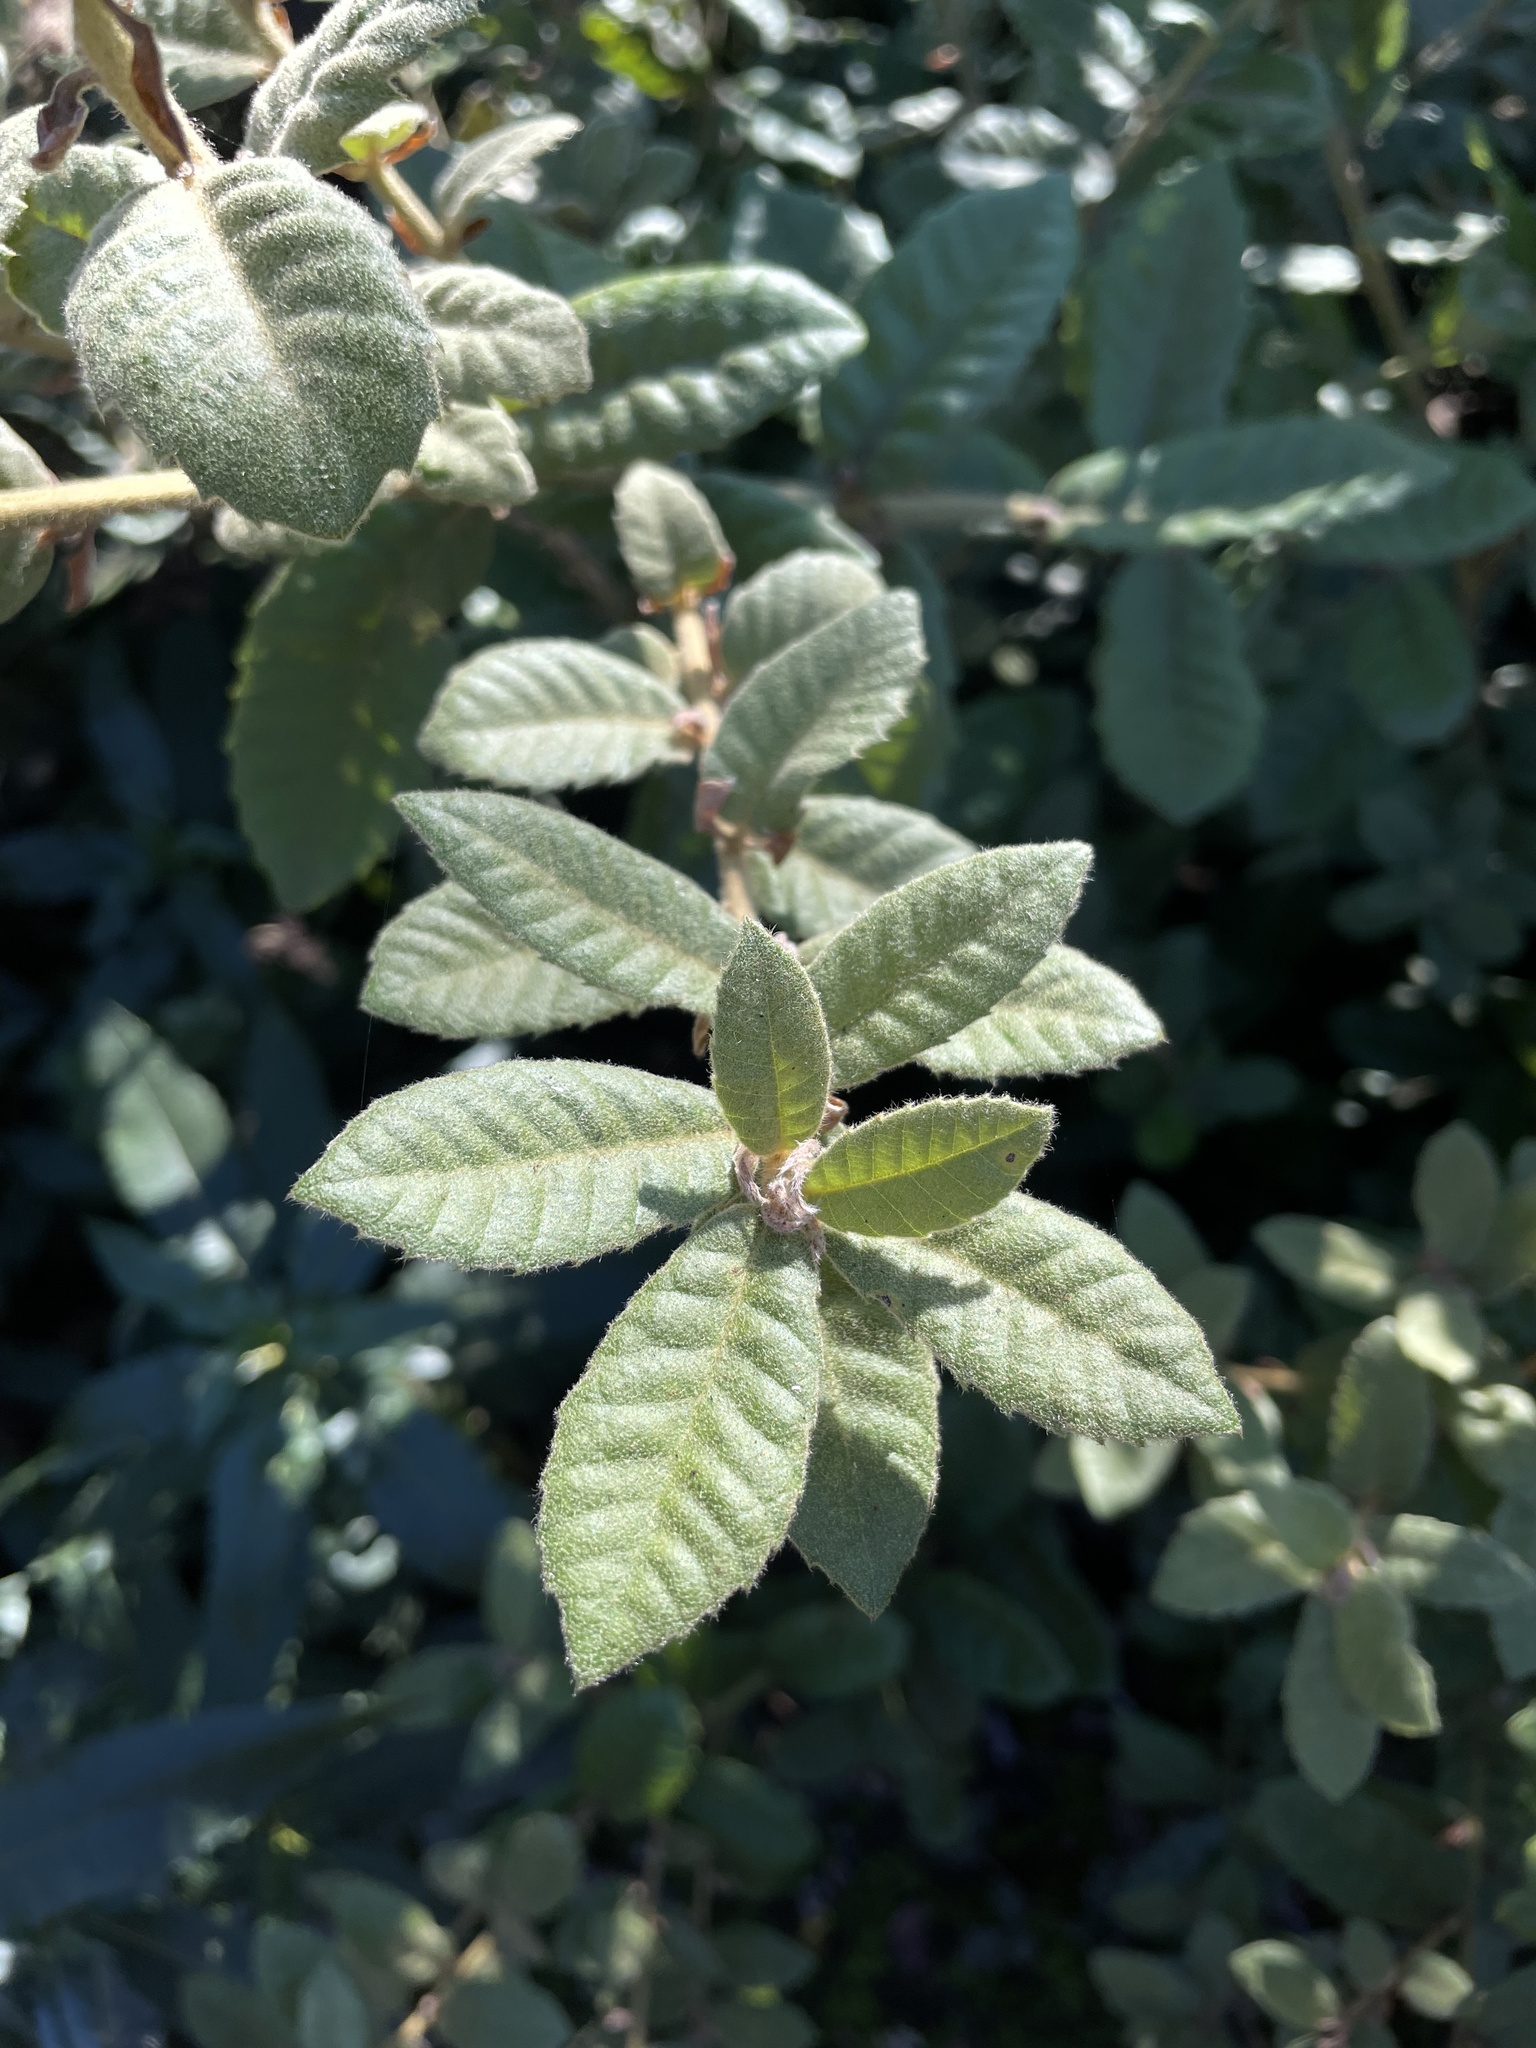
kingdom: Plantae
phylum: Tracheophyta
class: Magnoliopsida
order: Fagales
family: Fagaceae
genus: Notholithocarpus
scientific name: Notholithocarpus densiflorus
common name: Tan bark oak
